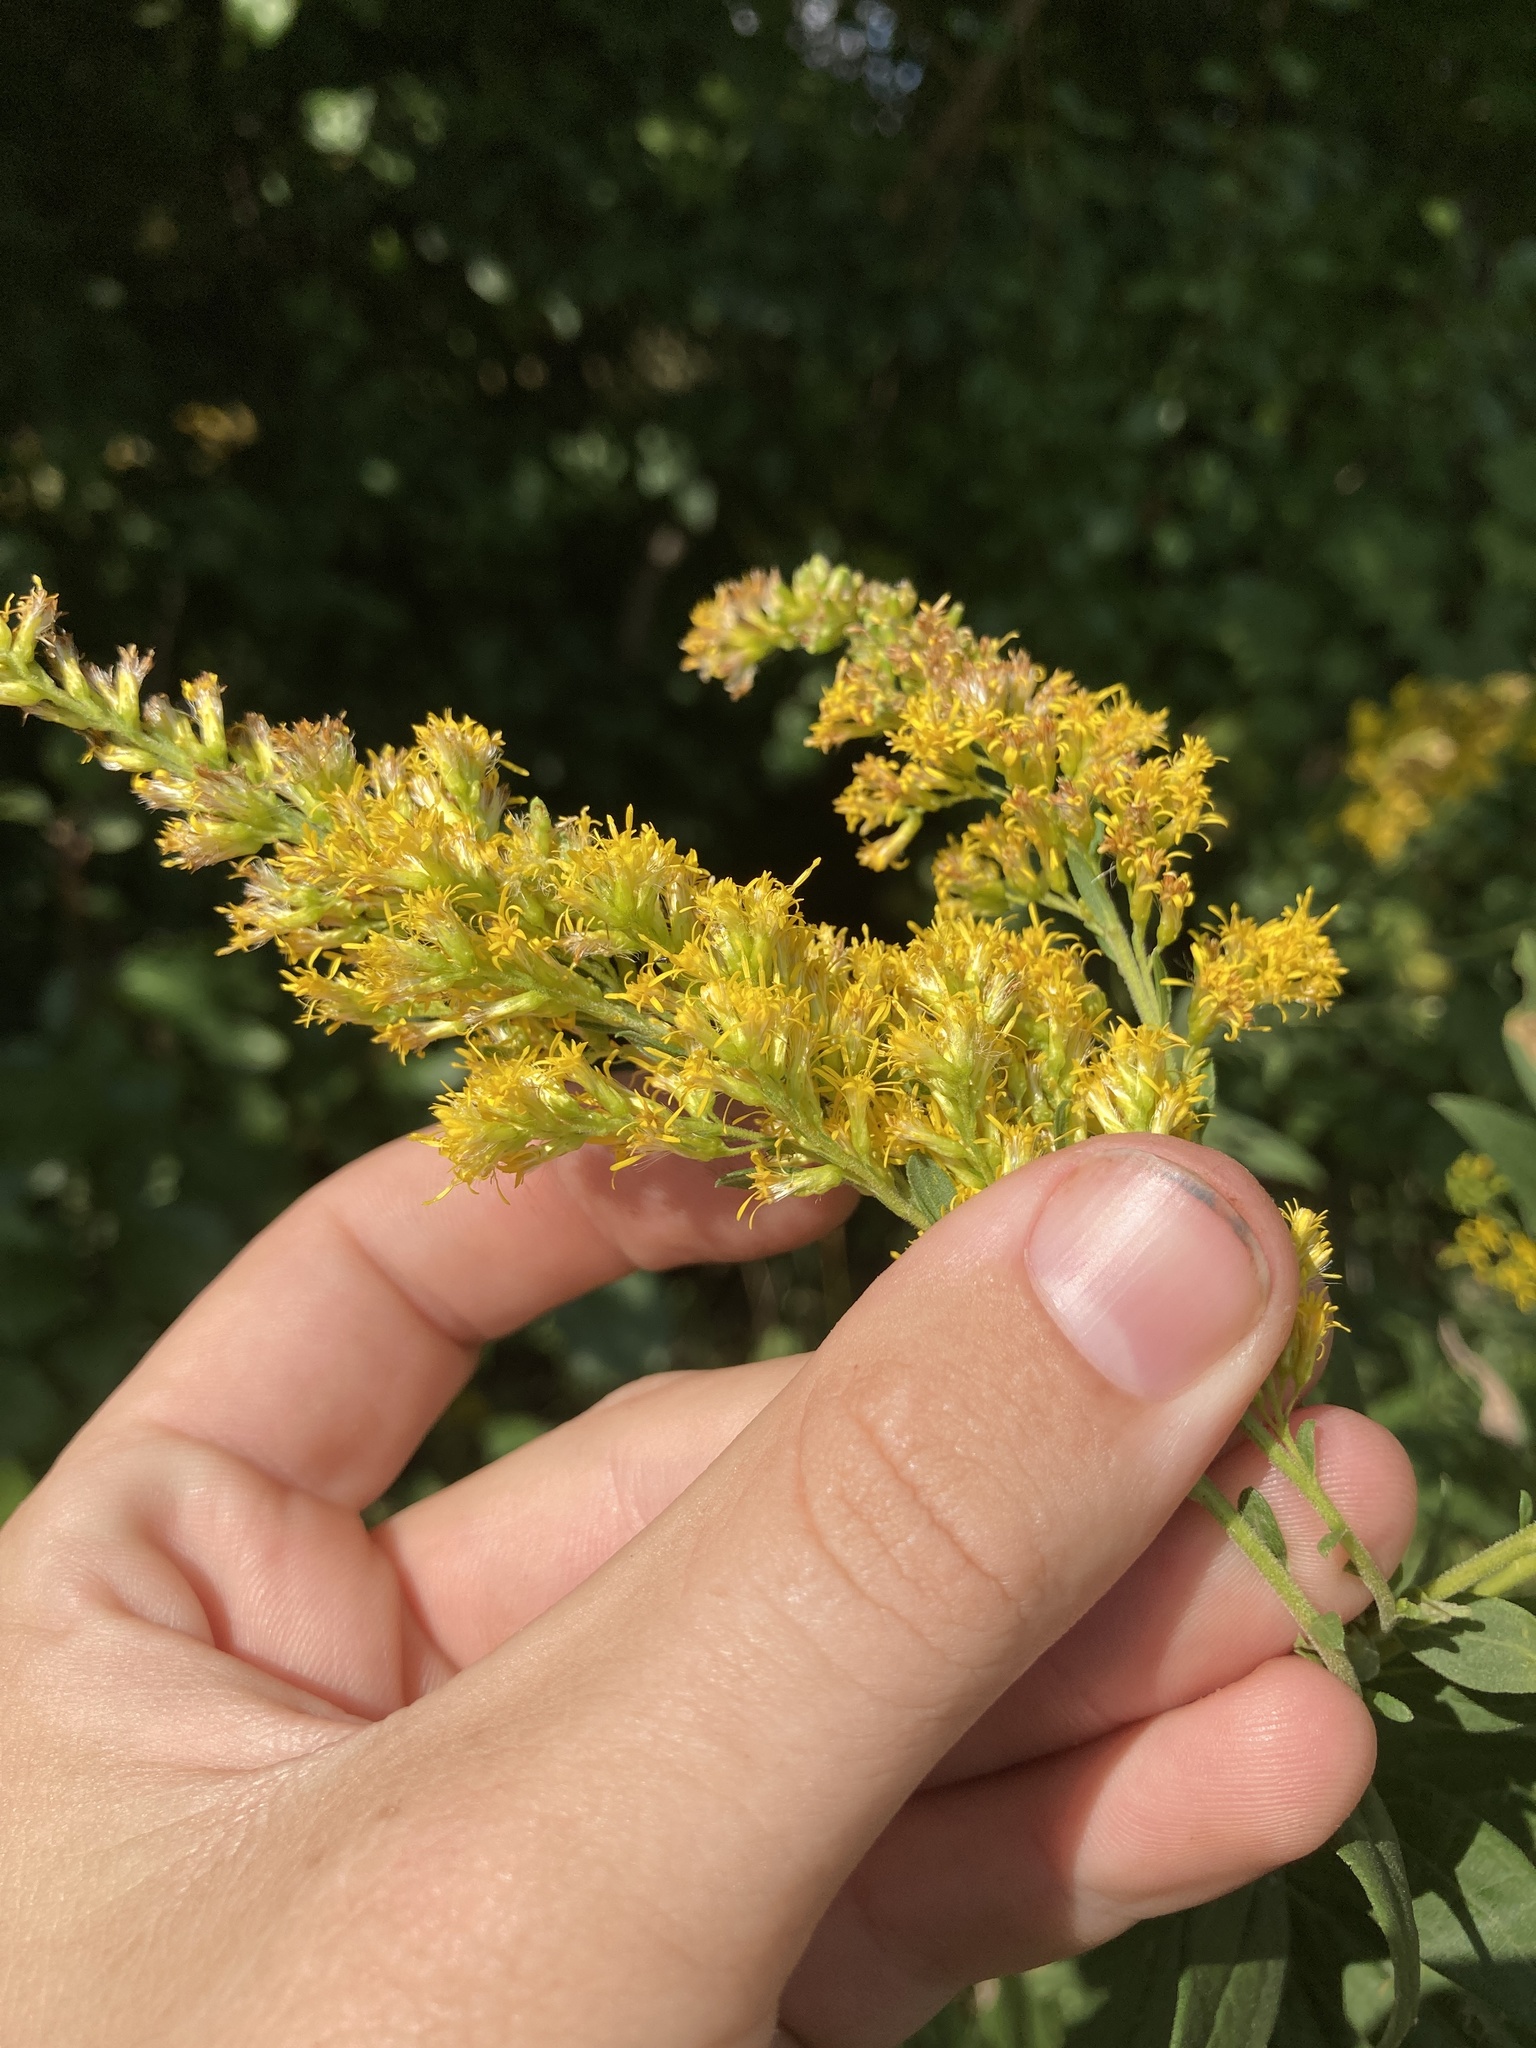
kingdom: Plantae
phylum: Tracheophyta
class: Magnoliopsida
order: Asterales
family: Asteraceae
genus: Solidago
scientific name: Solidago altissima
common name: Late goldenrod
